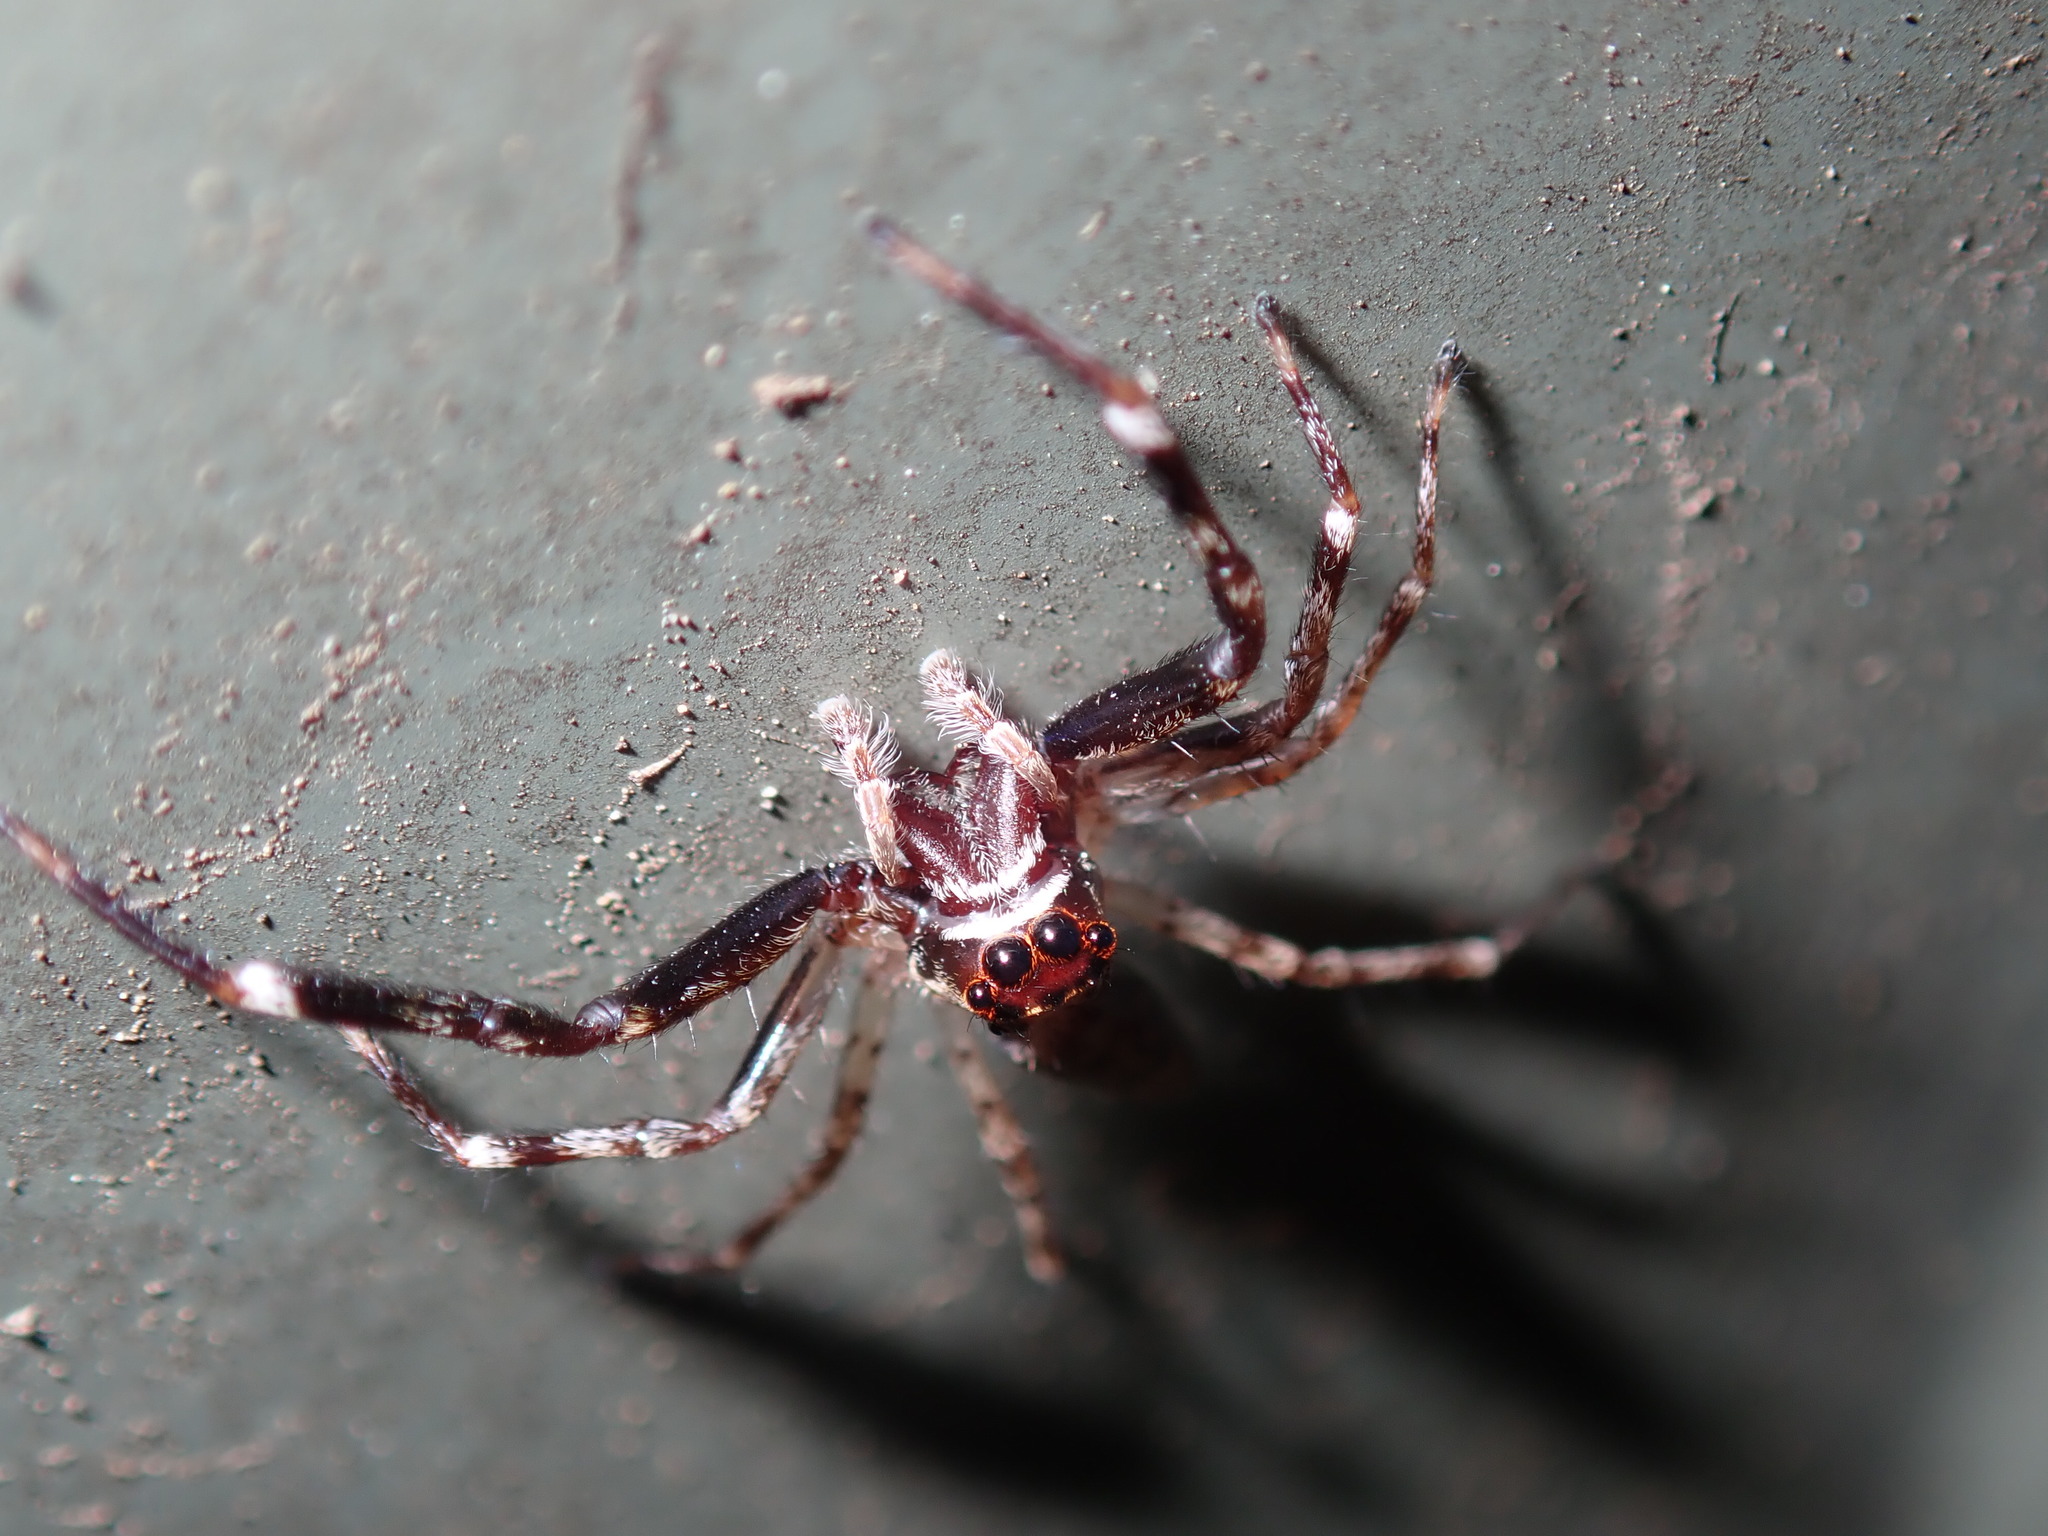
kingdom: Animalia
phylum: Arthropoda
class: Arachnida
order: Araneae
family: Salticidae
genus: Helpis
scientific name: Helpis minitabunda
